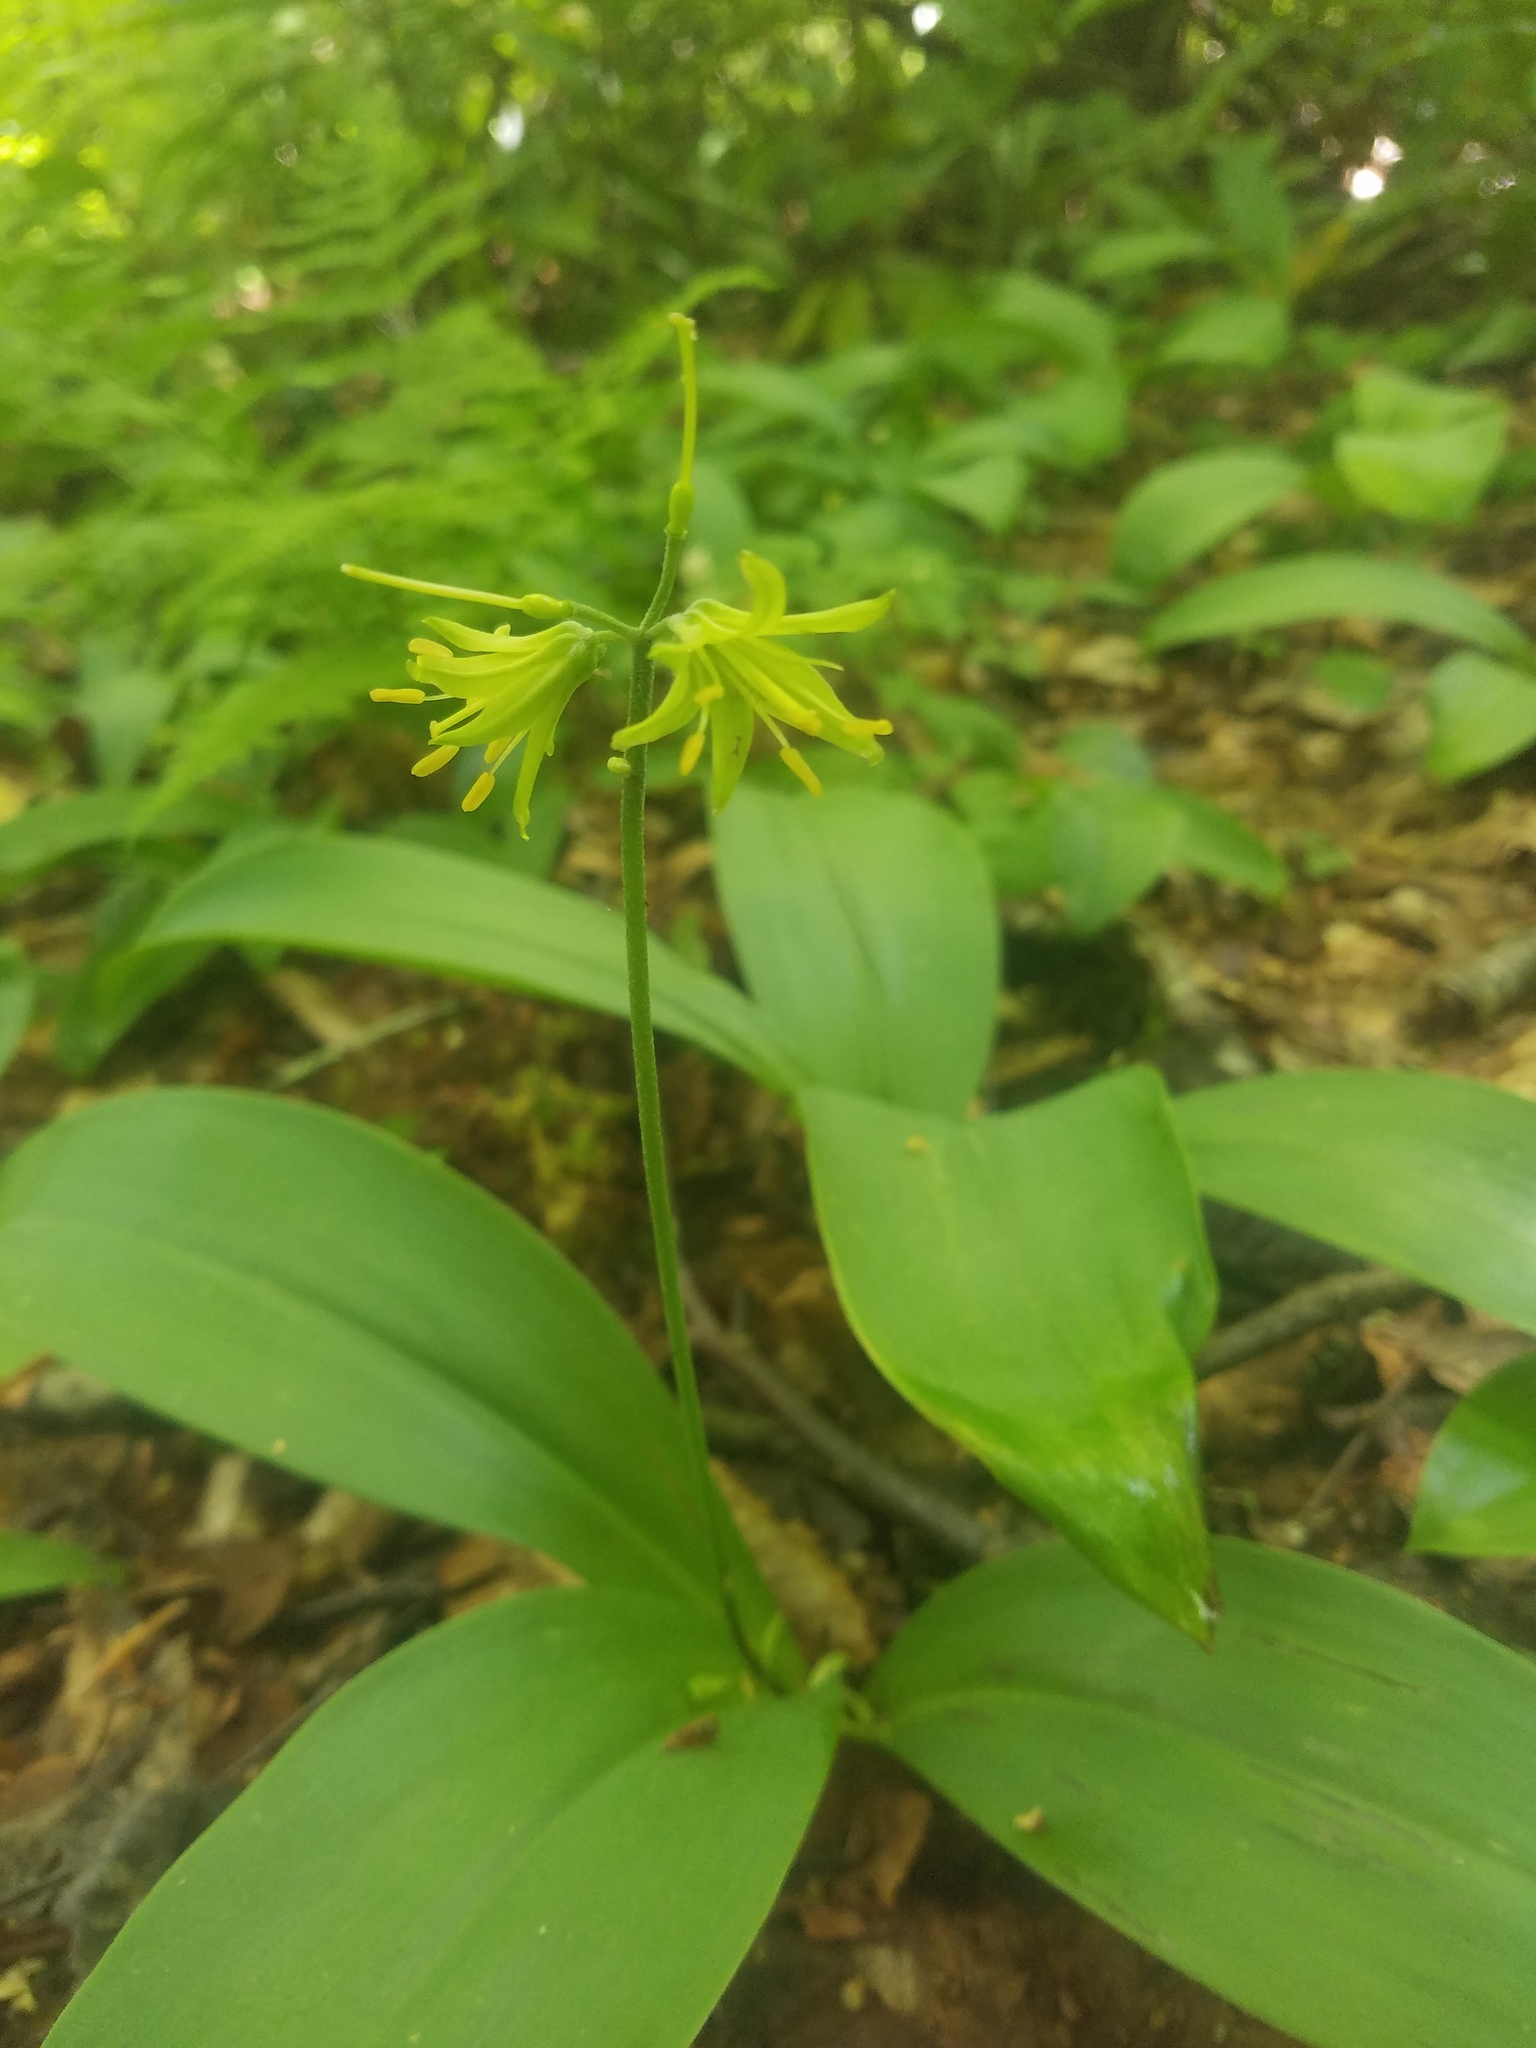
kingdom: Plantae
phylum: Tracheophyta
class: Liliopsida
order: Liliales
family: Liliaceae
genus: Clintonia
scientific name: Clintonia borealis
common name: Yellow clintonia
